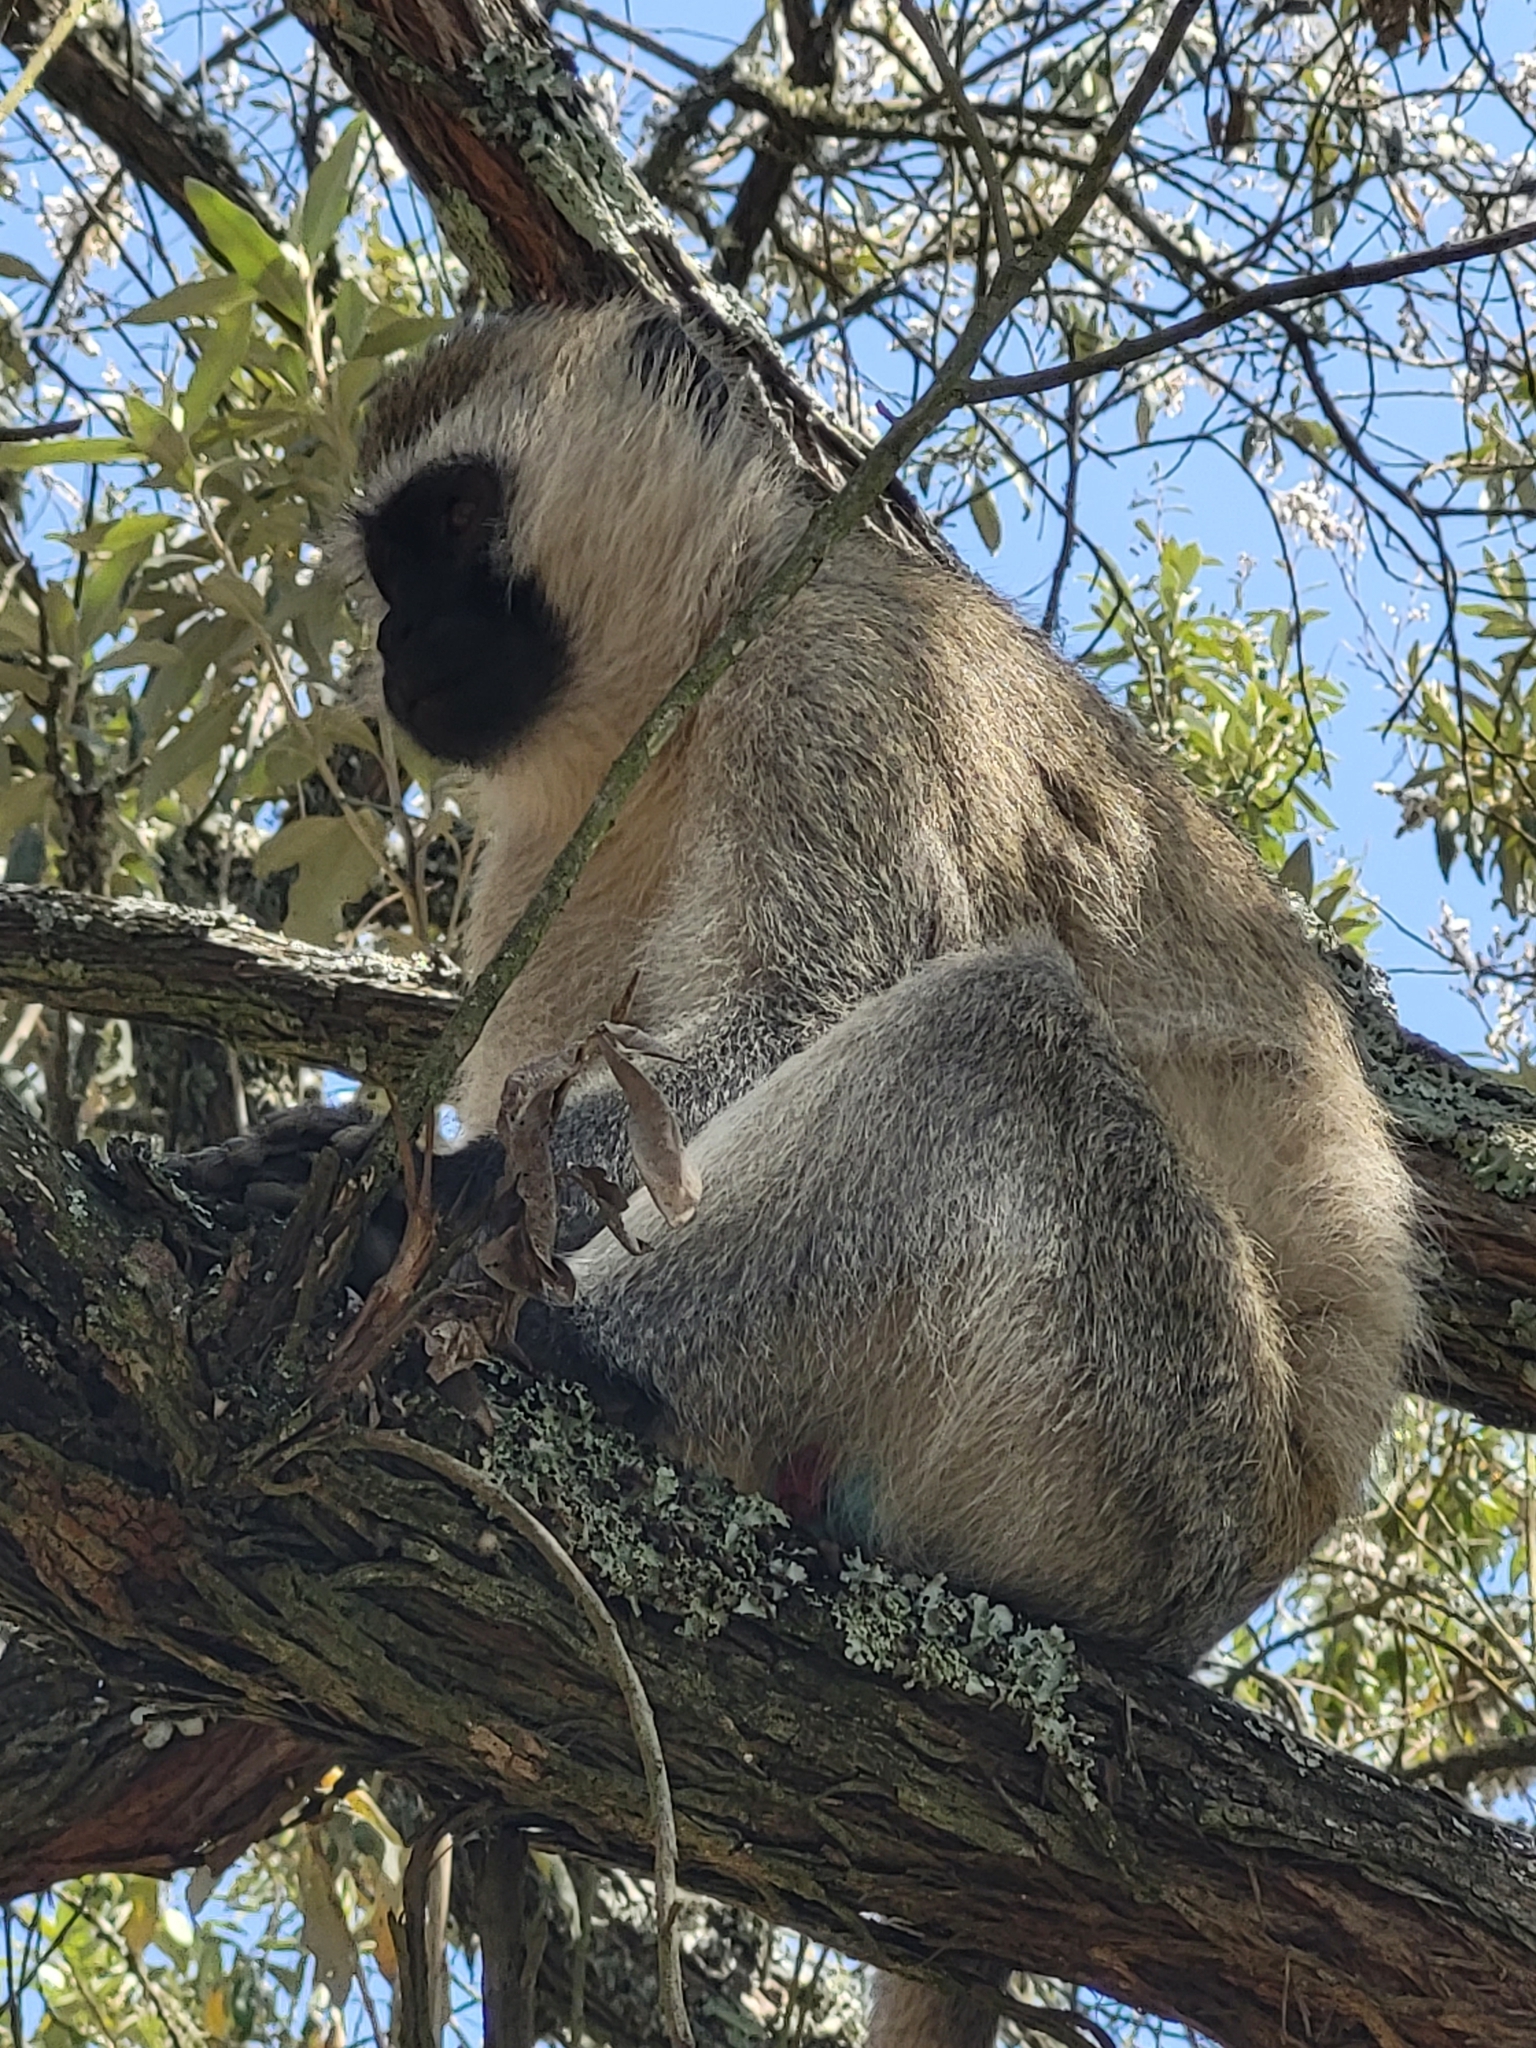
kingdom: Animalia
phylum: Chordata
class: Mammalia
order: Primates
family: Cercopithecidae
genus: Chlorocebus
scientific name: Chlorocebus pygerythrus
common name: Vervet monkey
